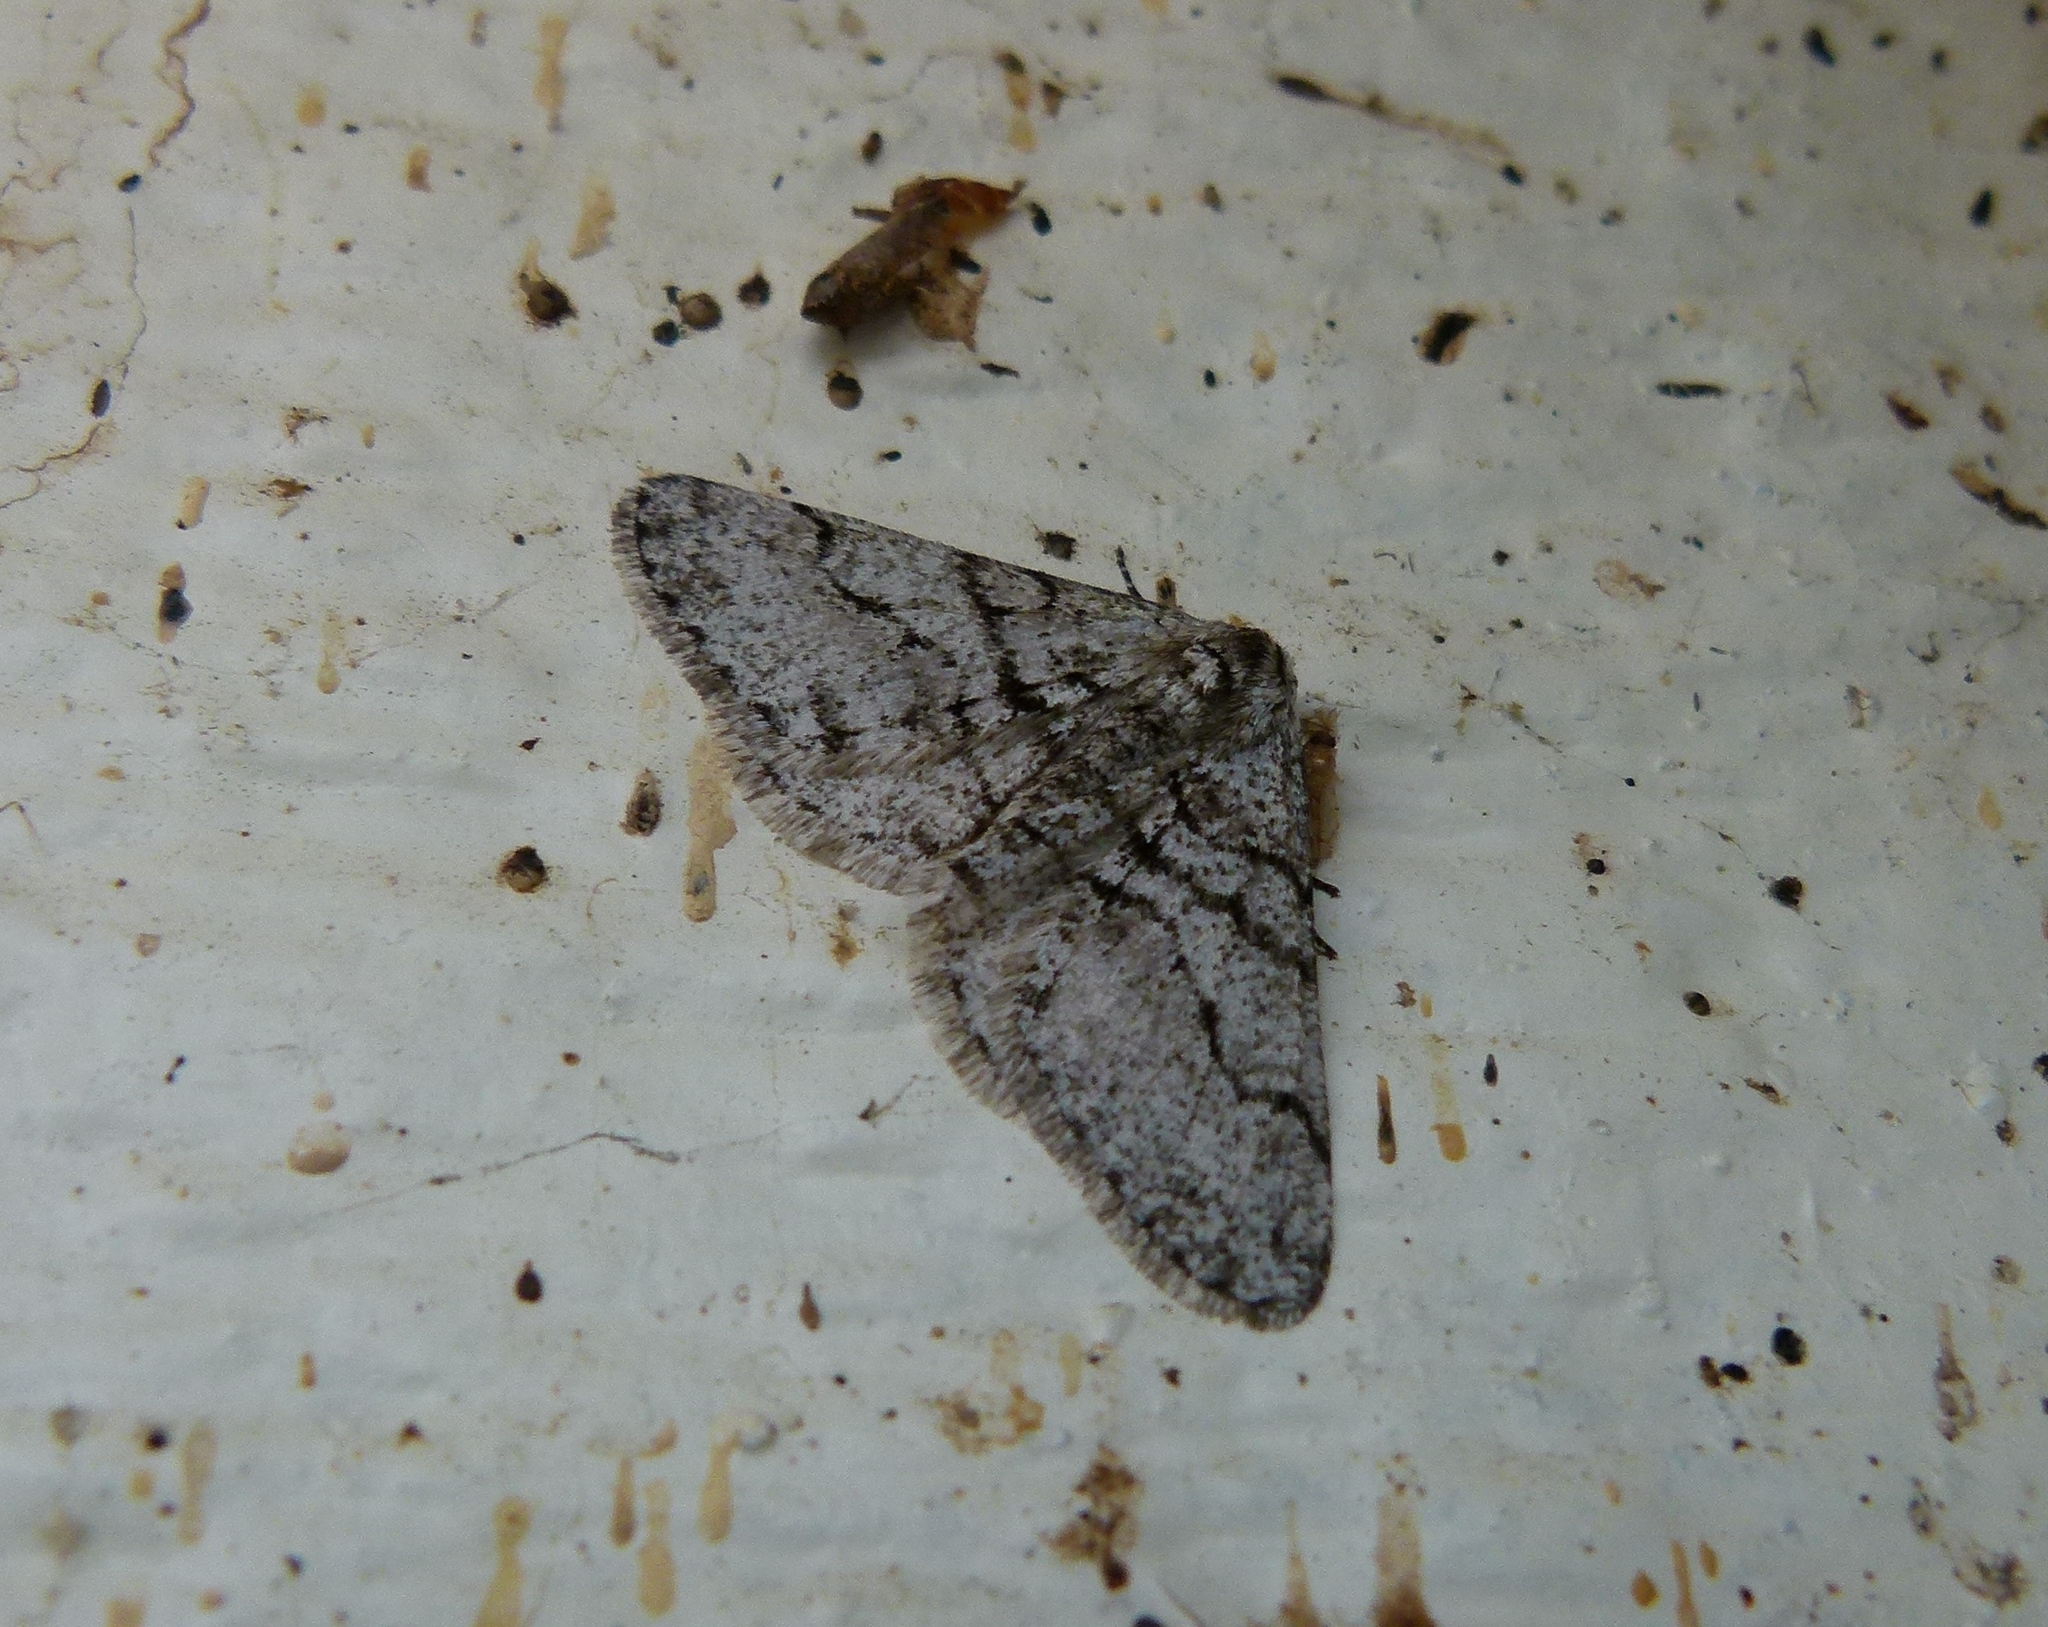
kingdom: Animalia
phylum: Arthropoda
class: Insecta
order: Lepidoptera
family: Geometridae
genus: Phigalia
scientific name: Phigalia titea
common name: Spiny looper
